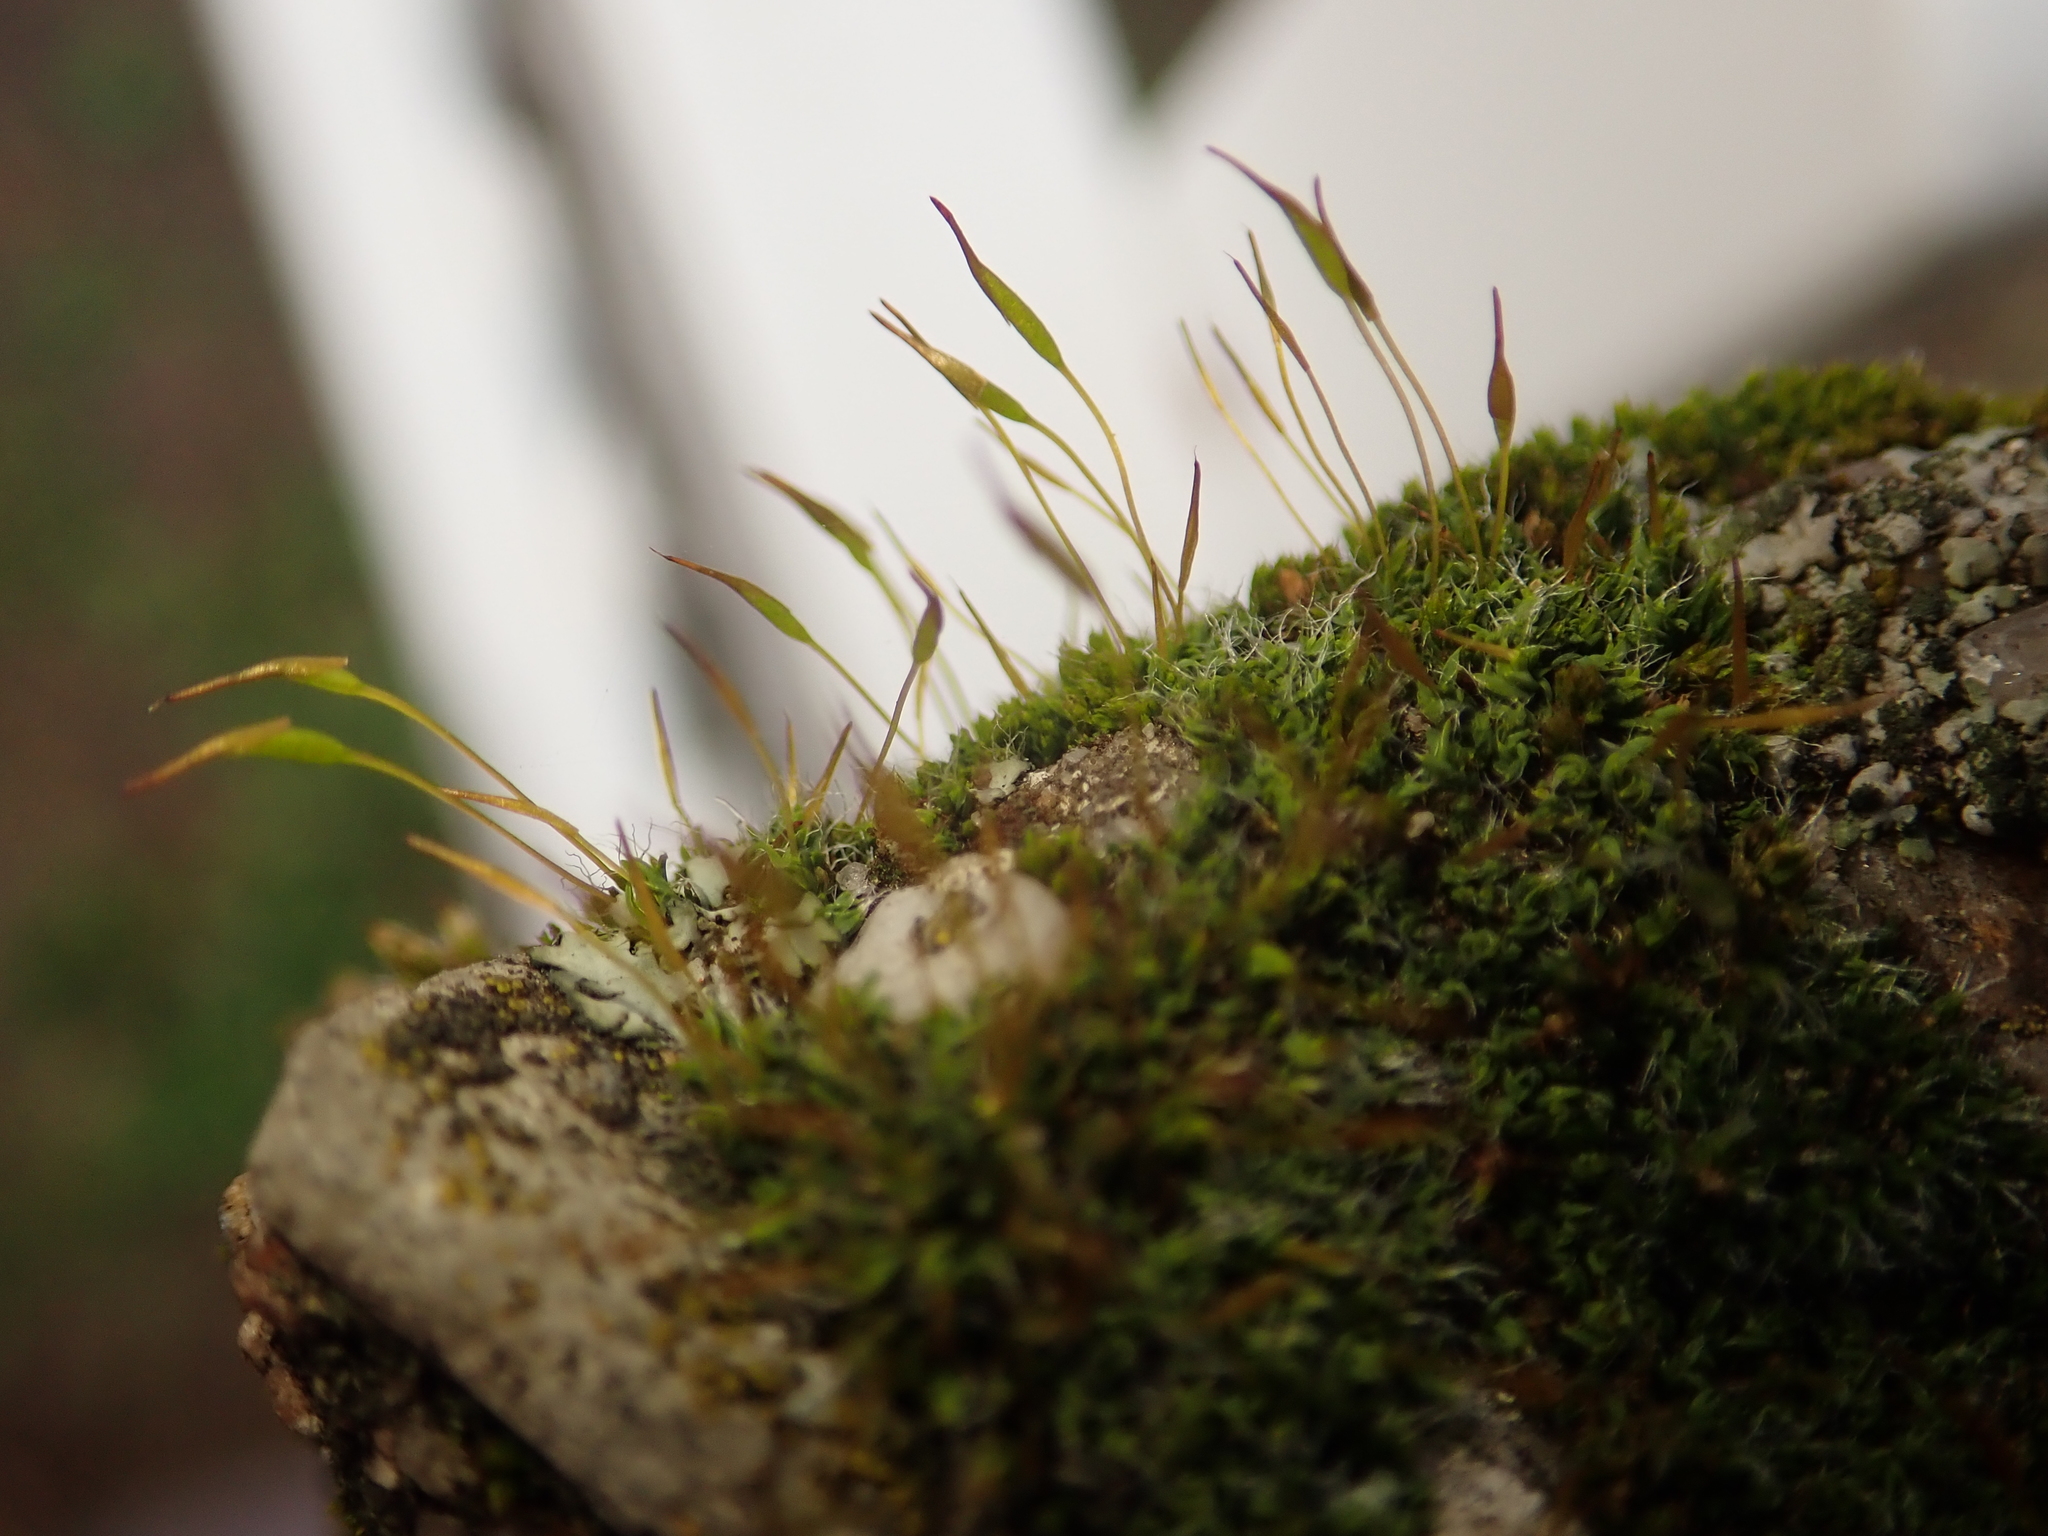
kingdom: Plantae
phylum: Bryophyta
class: Bryopsida
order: Pottiales
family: Pottiaceae
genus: Tortula
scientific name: Tortula muralis
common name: Wall screw-moss
